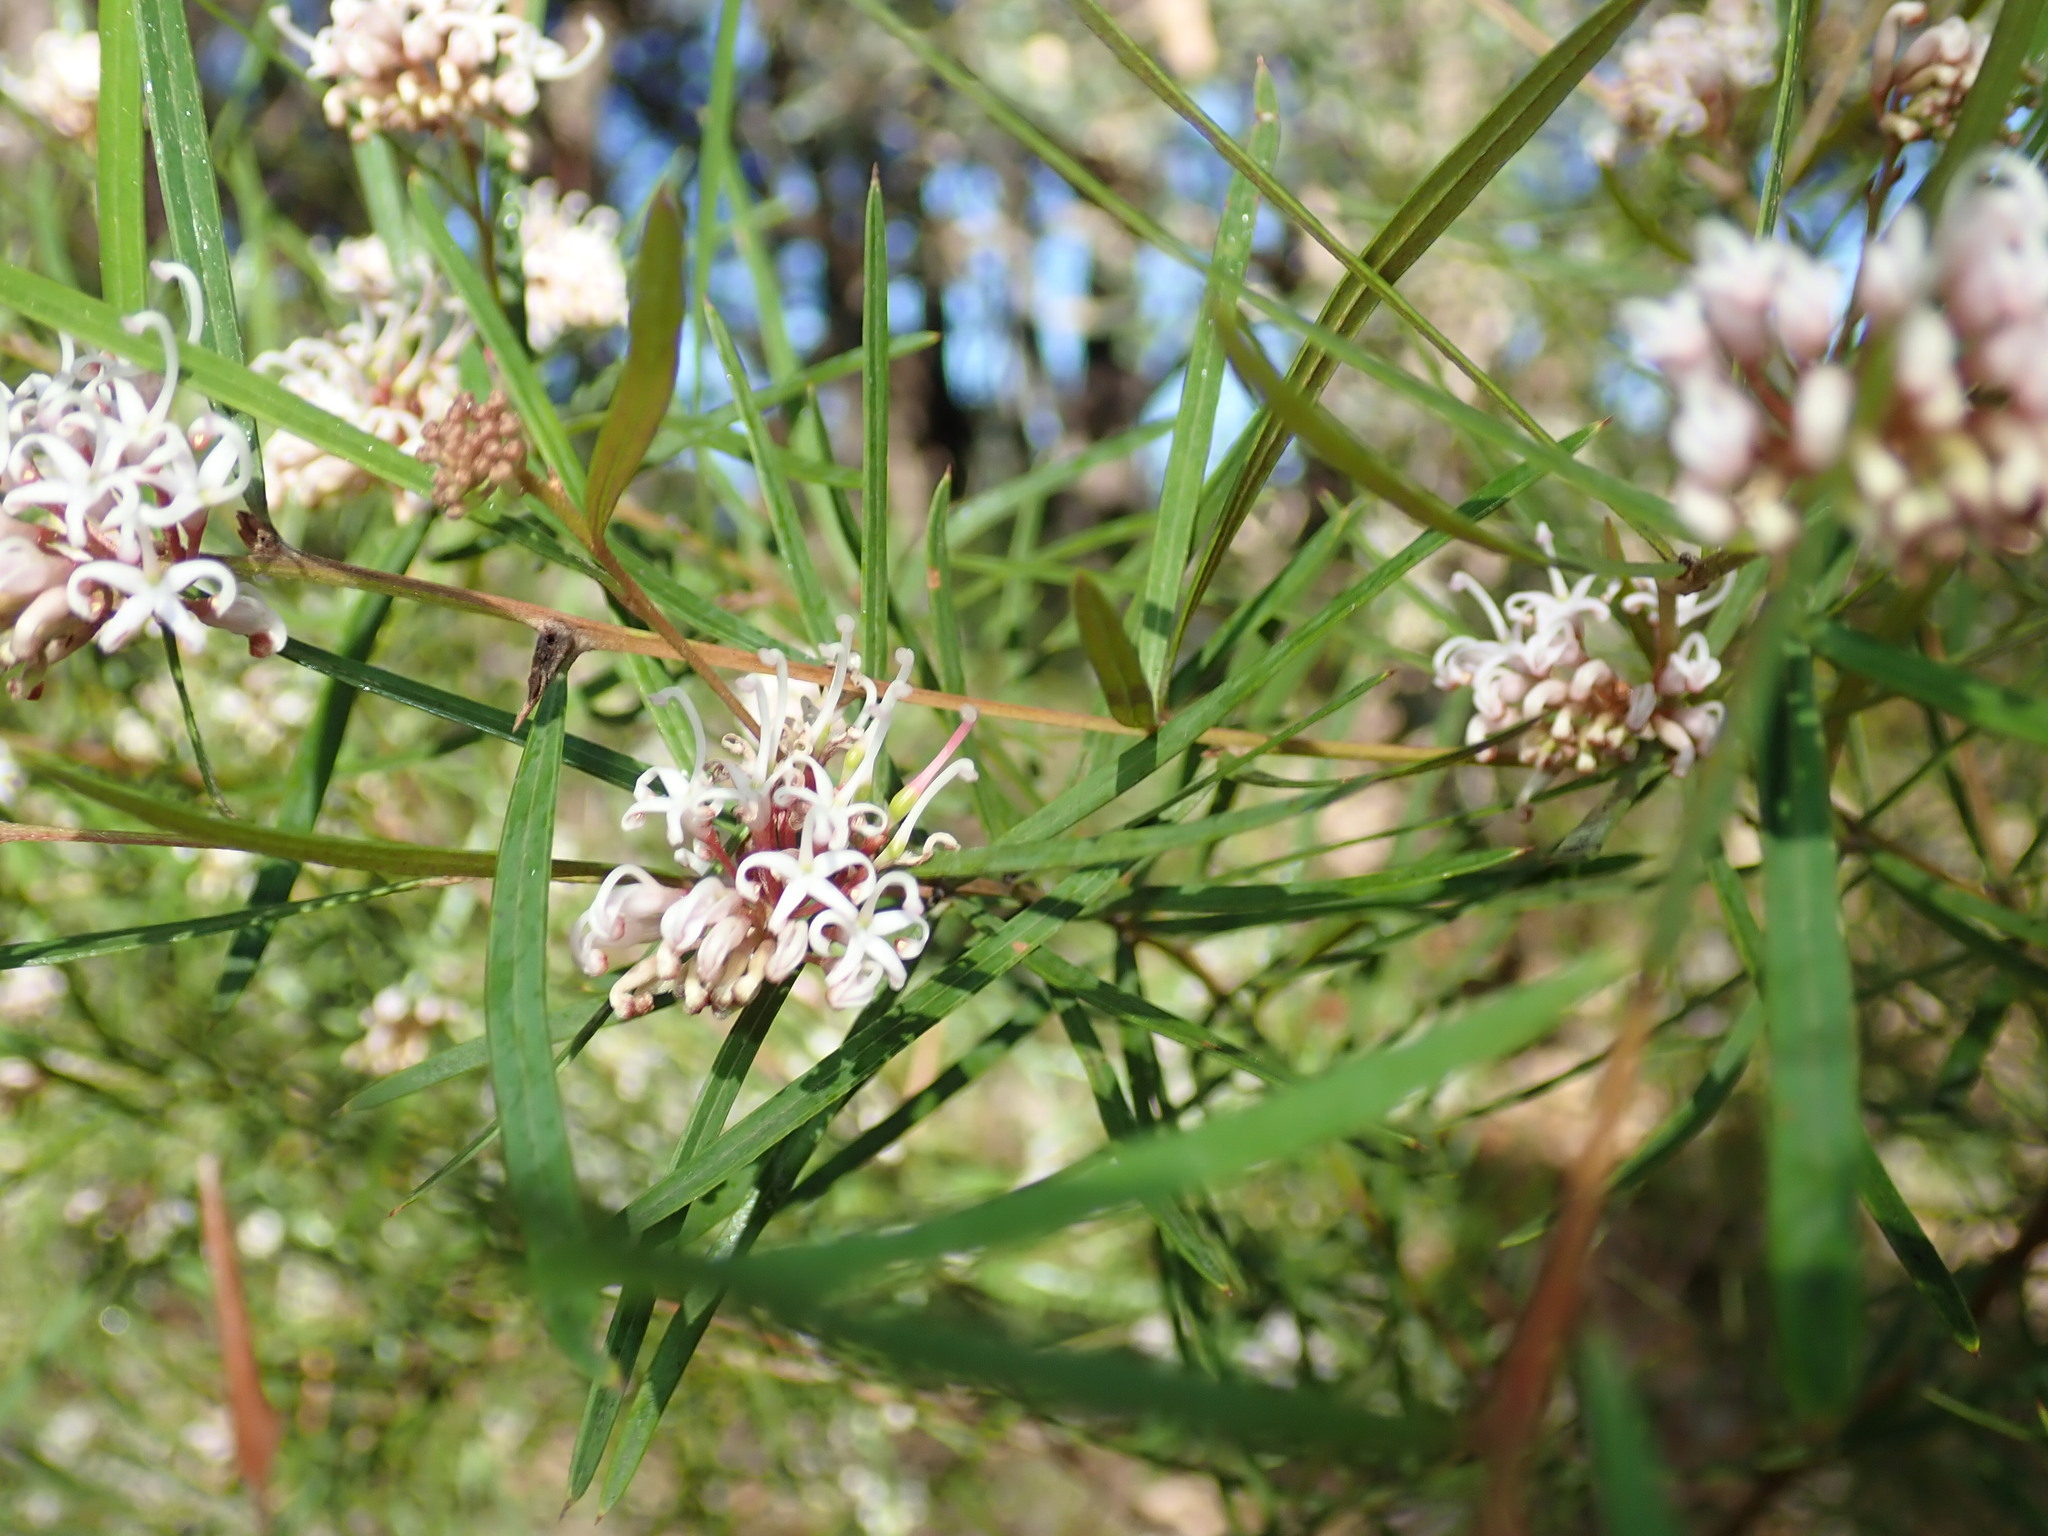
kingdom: Plantae
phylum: Tracheophyta
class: Magnoliopsida
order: Proteales
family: Proteaceae
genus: Grevillea
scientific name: Grevillea linearifolia
